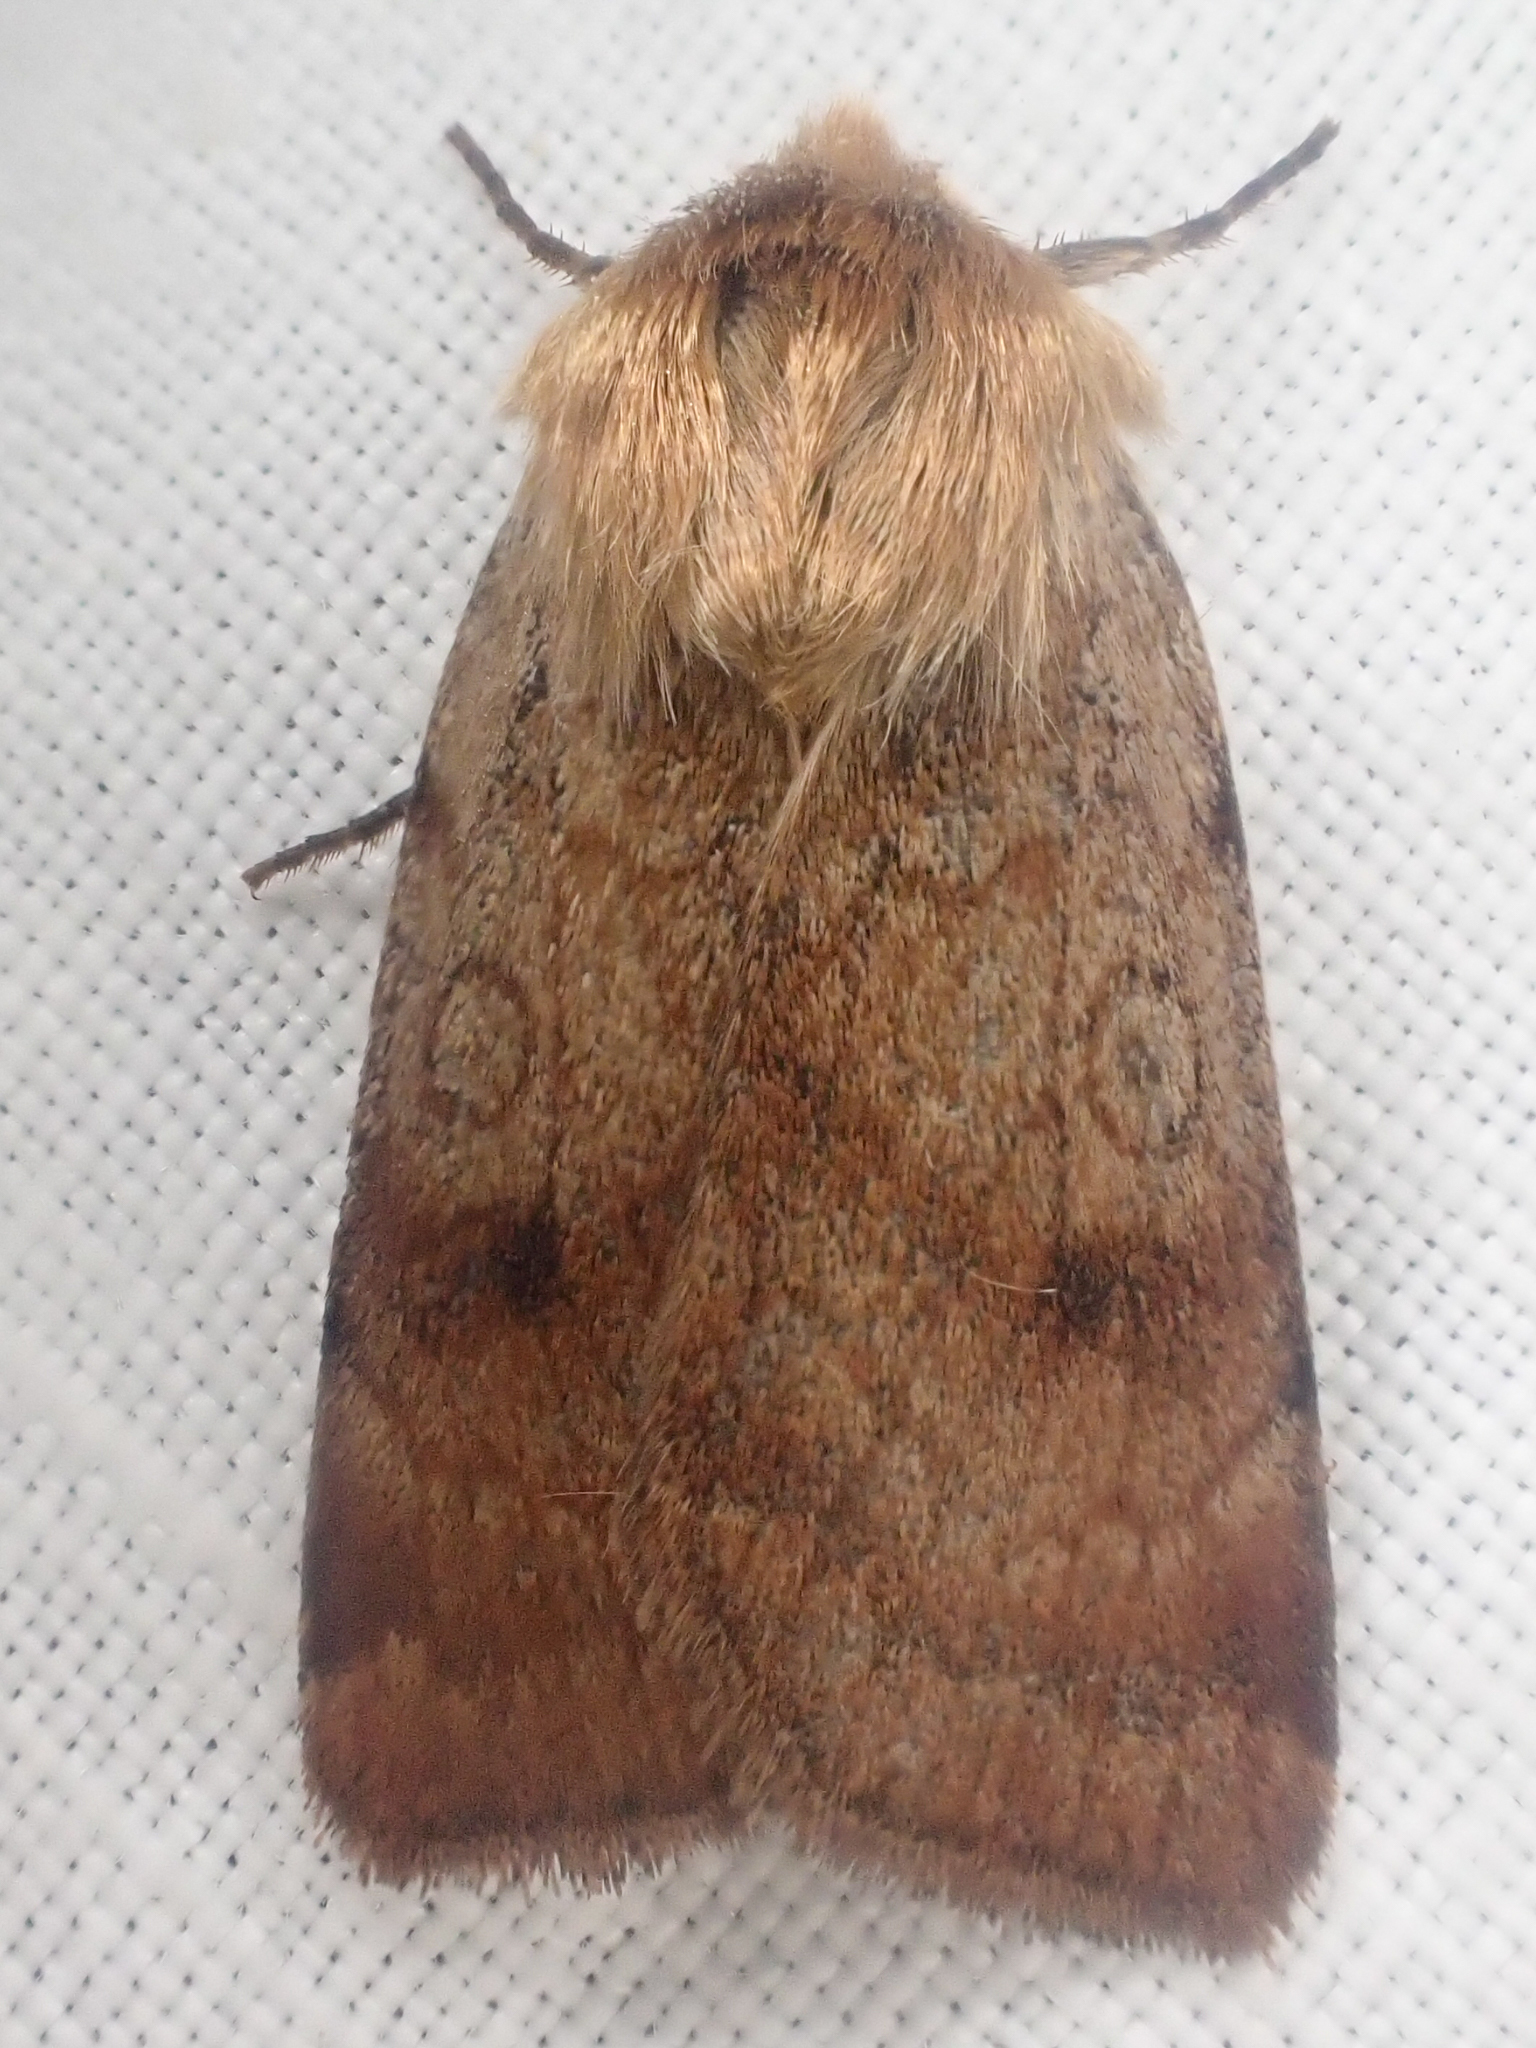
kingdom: Animalia
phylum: Arthropoda
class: Insecta
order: Lepidoptera
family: Noctuidae
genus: Paradiarsia
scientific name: Paradiarsia littoralis
